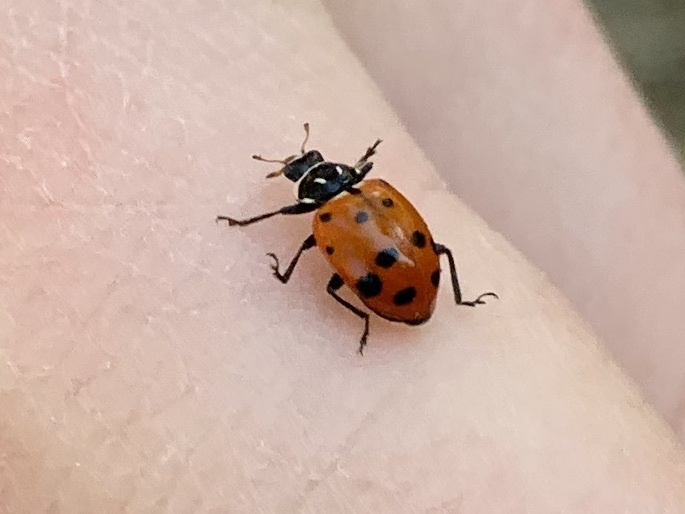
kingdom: Animalia
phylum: Arthropoda
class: Insecta
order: Coleoptera
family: Coccinellidae
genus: Hippodamia
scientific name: Hippodamia convergens
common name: Convergent lady beetle
